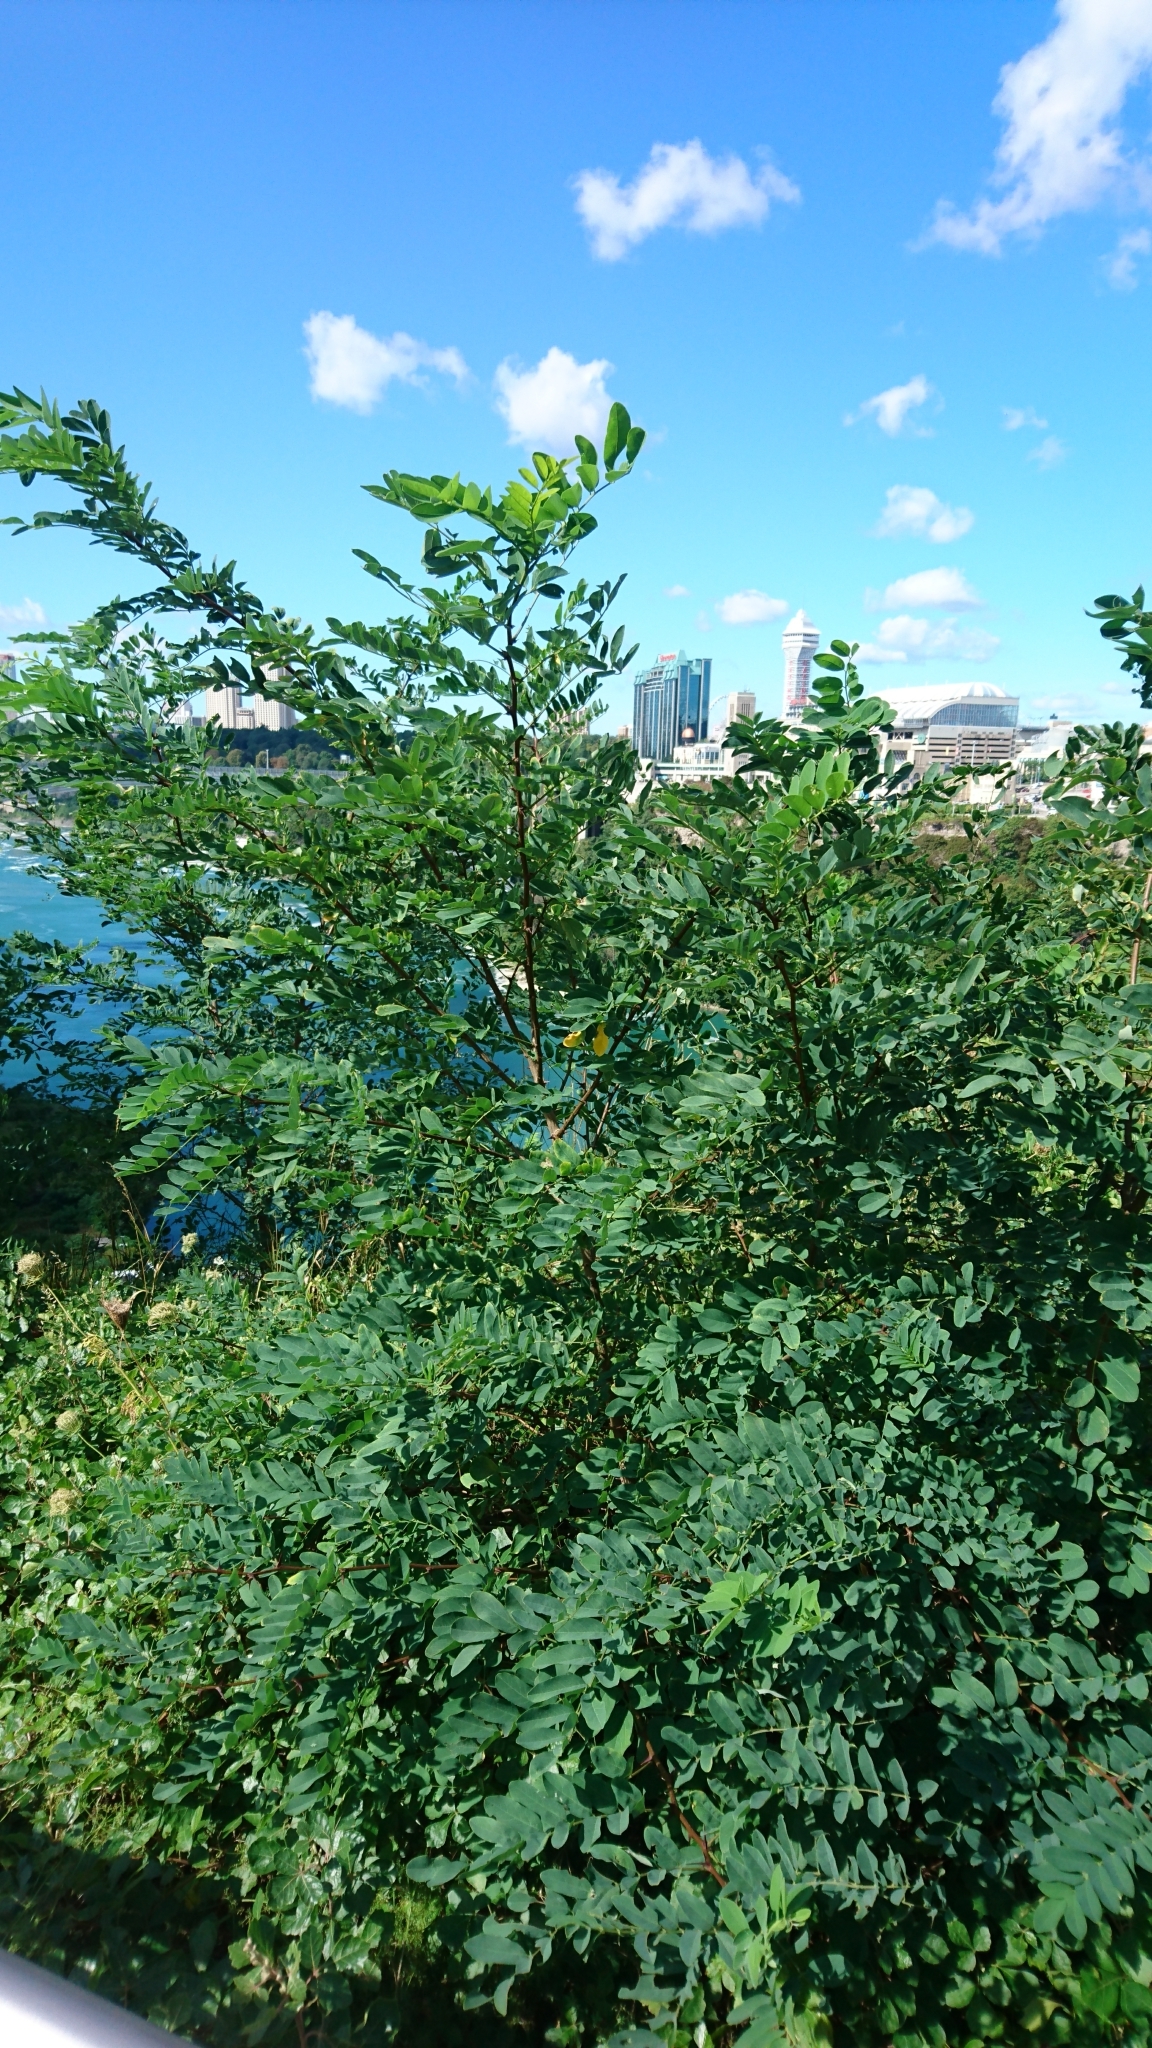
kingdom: Plantae
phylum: Tracheophyta
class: Magnoliopsida
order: Fabales
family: Fabaceae
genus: Robinia
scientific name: Robinia pseudoacacia
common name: Black locust
